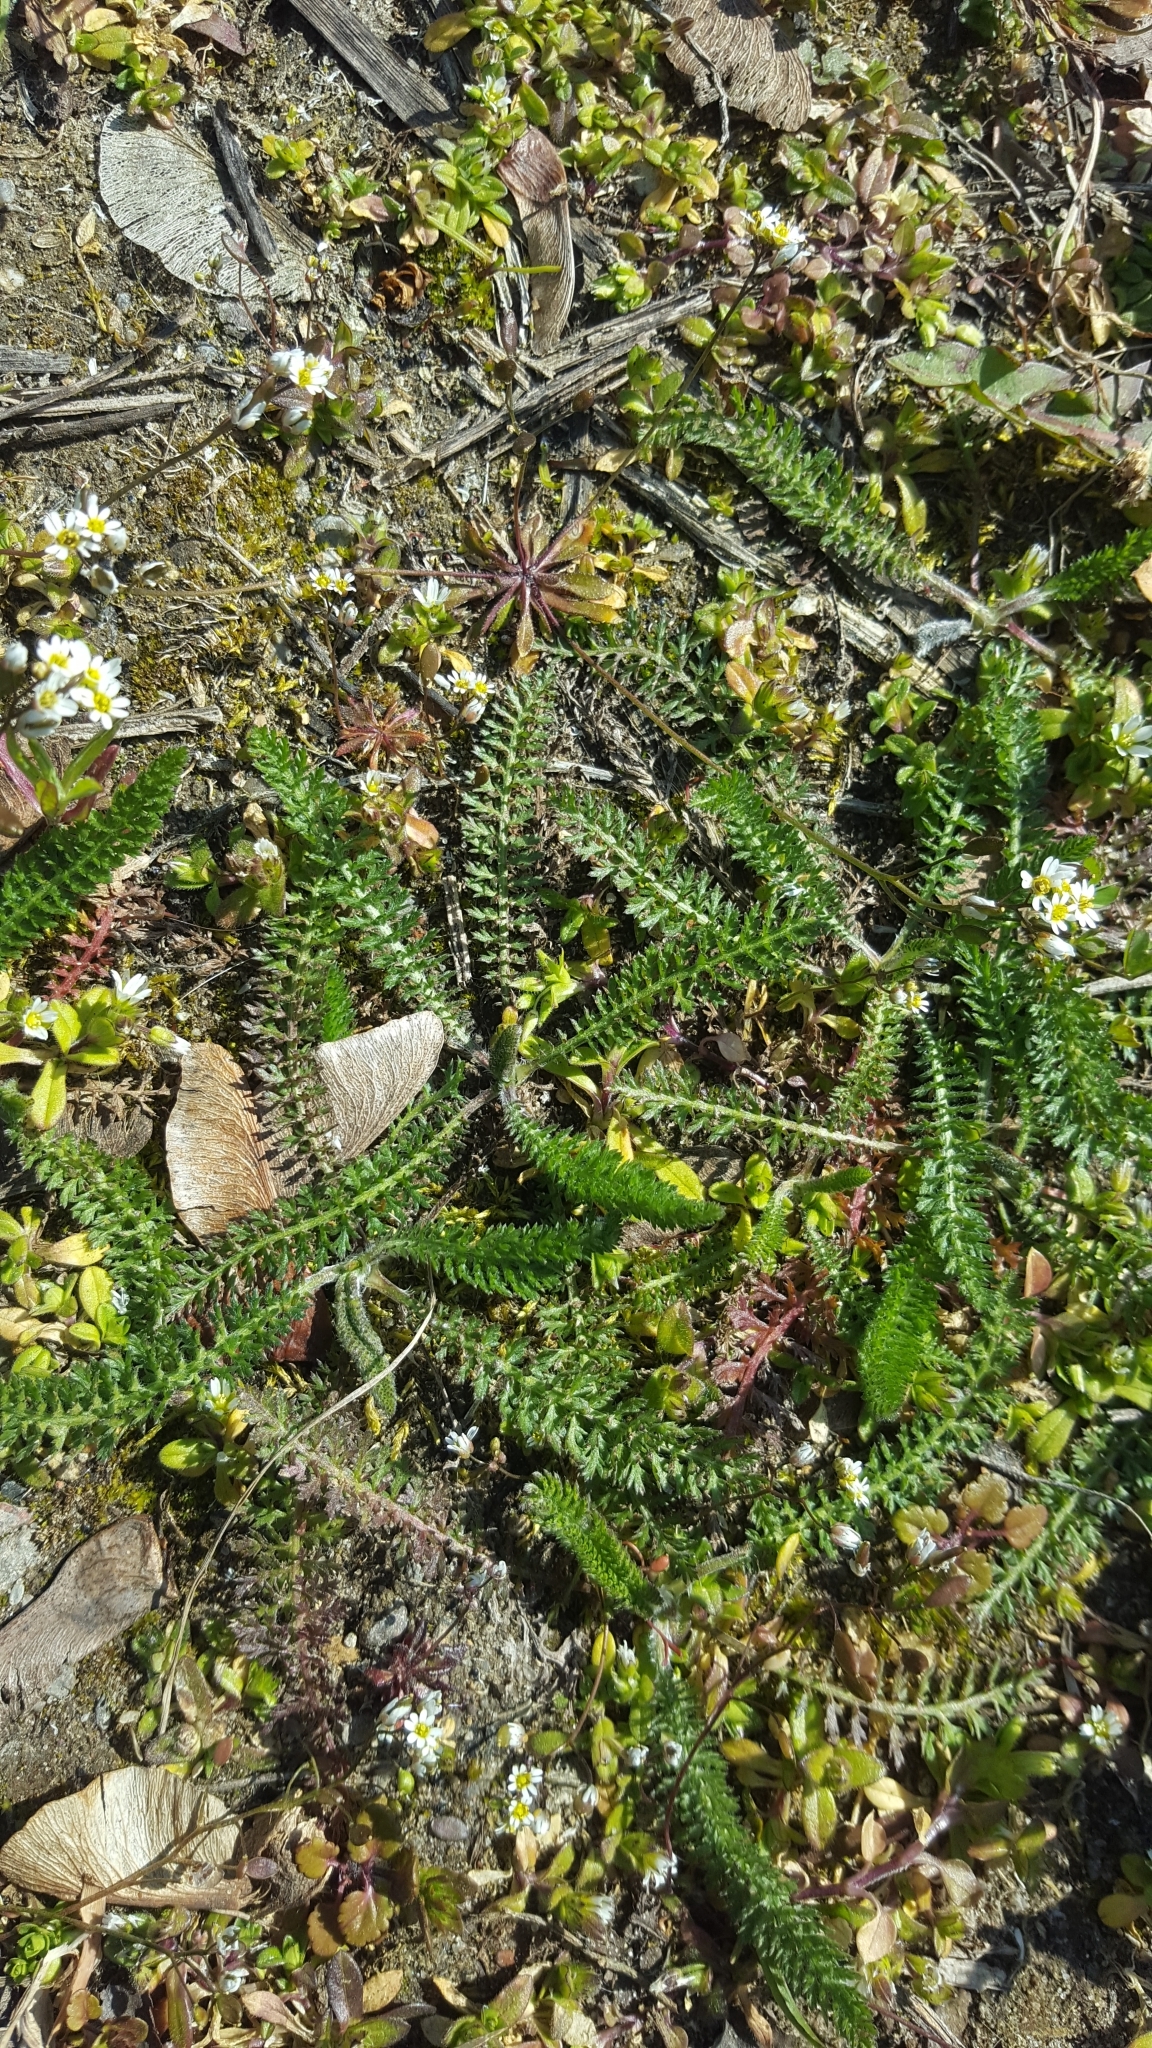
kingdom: Plantae
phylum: Tracheophyta
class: Magnoliopsida
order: Asterales
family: Asteraceae
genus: Achillea
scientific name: Achillea millefolium
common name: Yarrow
